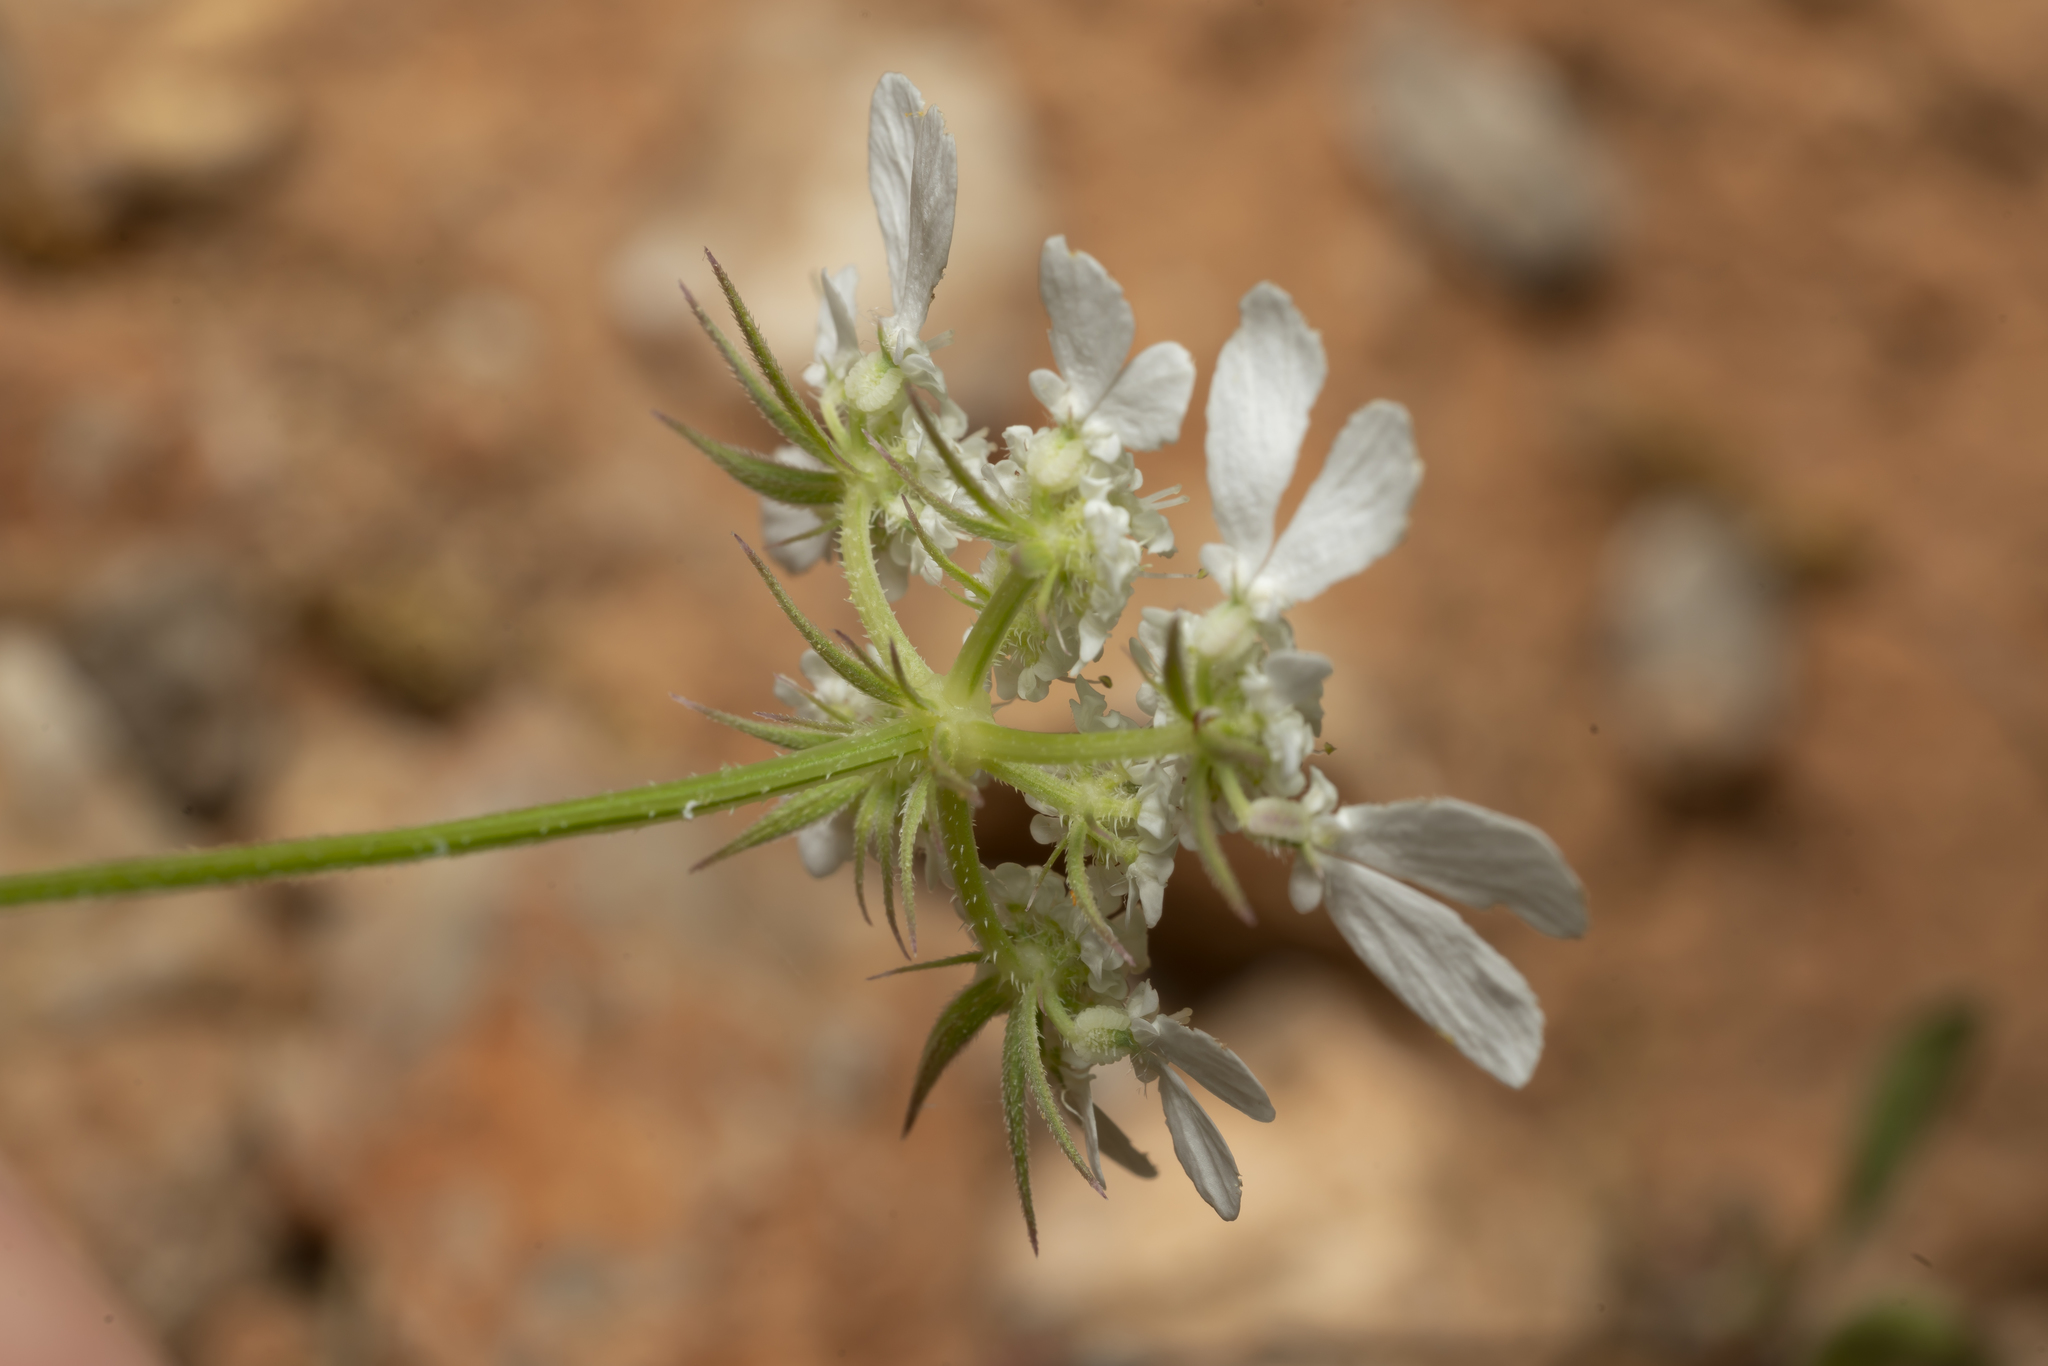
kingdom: Plantae
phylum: Tracheophyta
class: Magnoliopsida
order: Apiales
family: Apiaceae
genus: Tordylium
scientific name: Tordylium aegaeum
